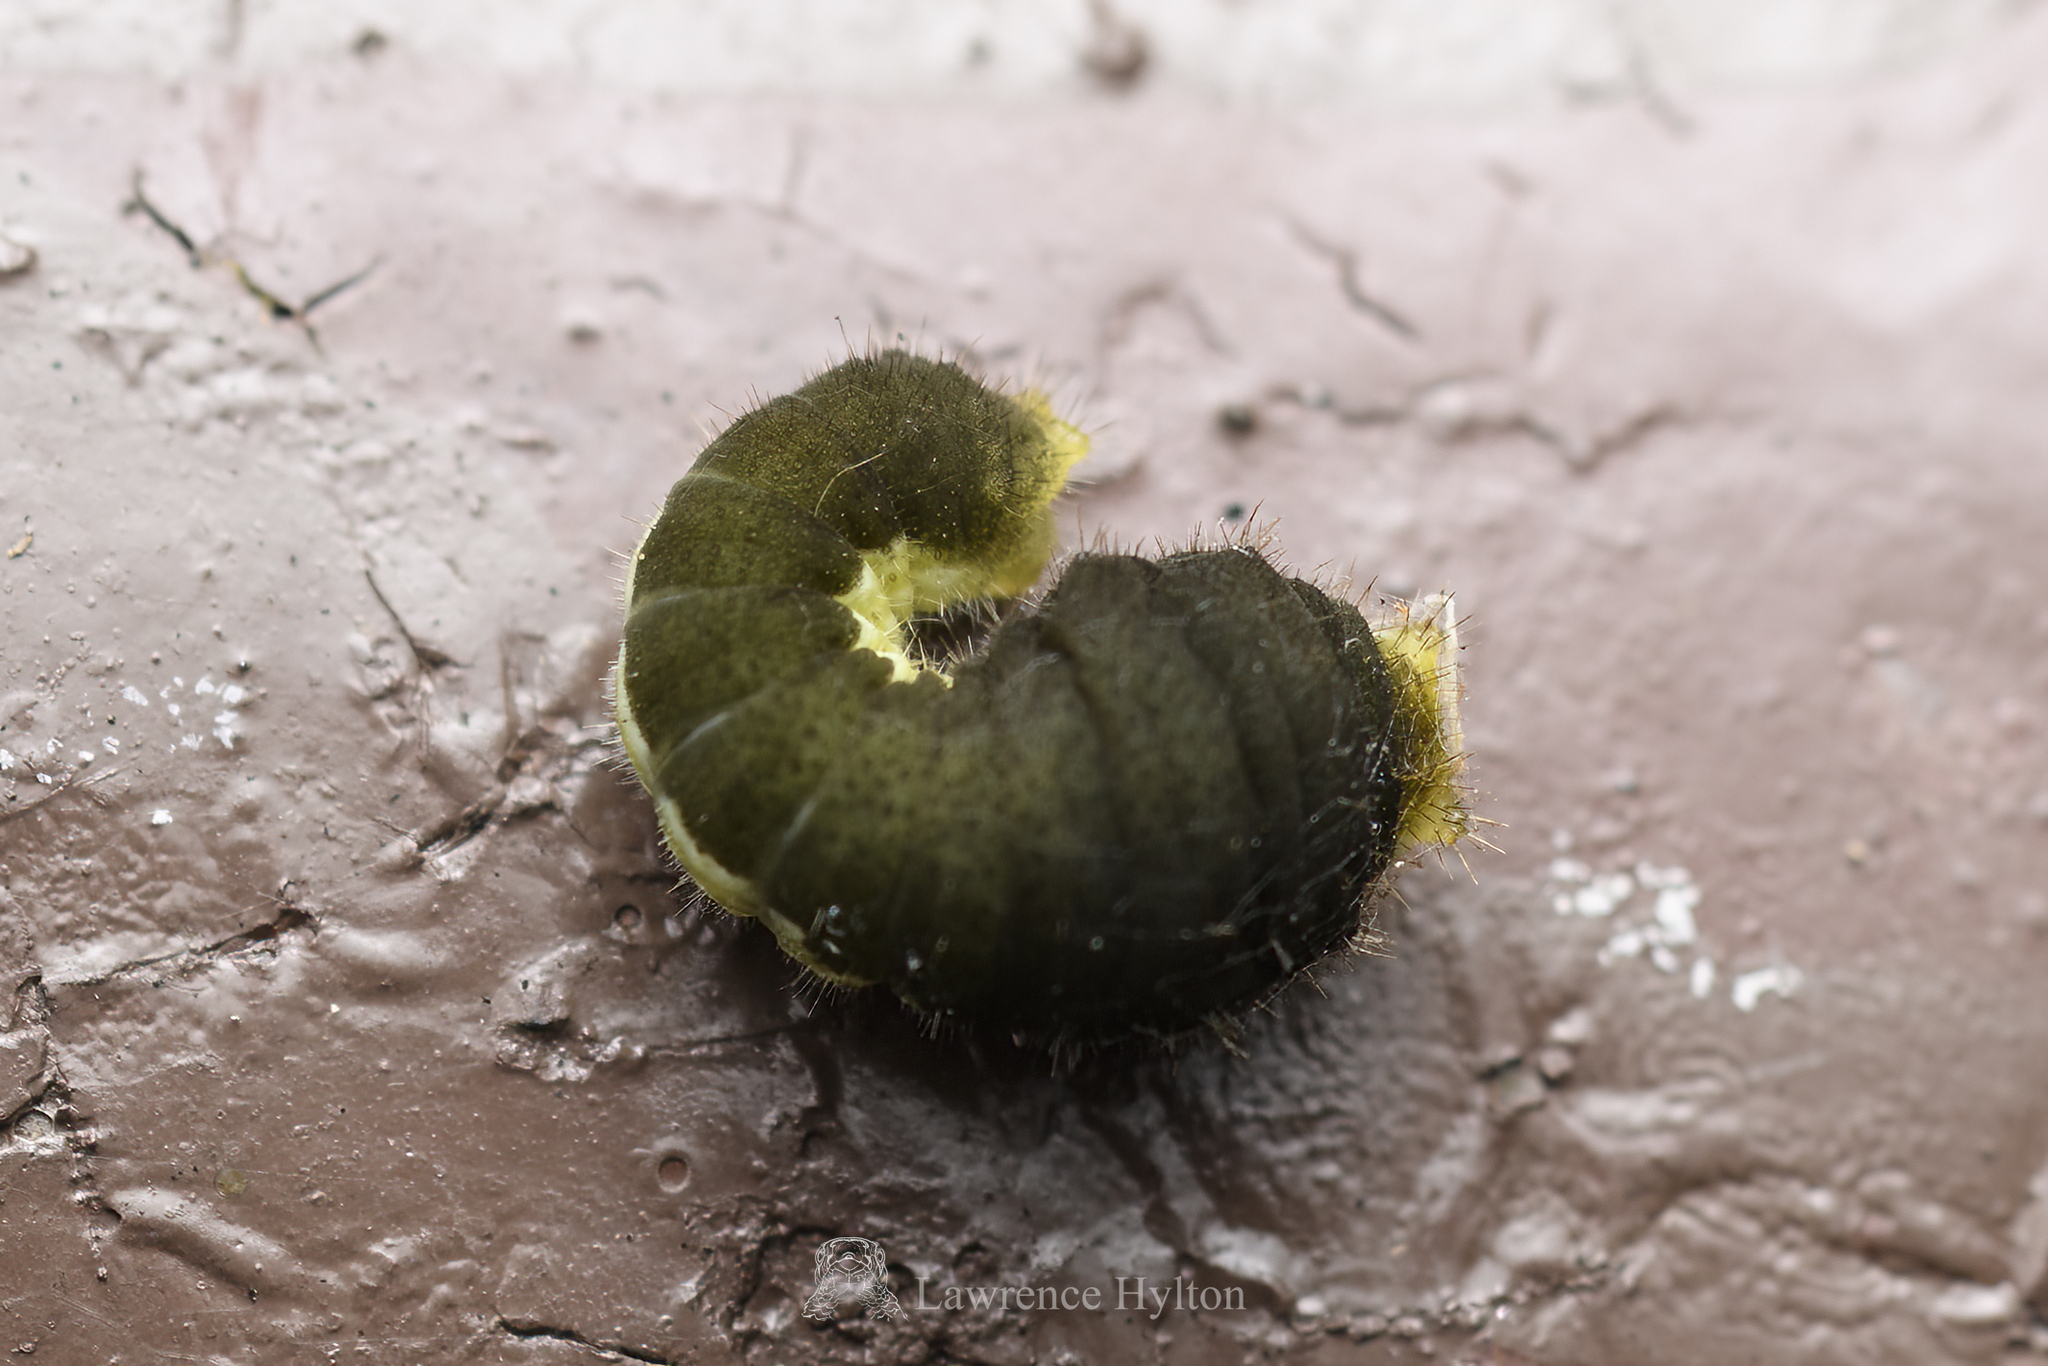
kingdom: Animalia
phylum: Arthropoda
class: Insecta
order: Lepidoptera
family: Papilionidae
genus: Lamproptera
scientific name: Lamproptera curius
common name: White dragontail
